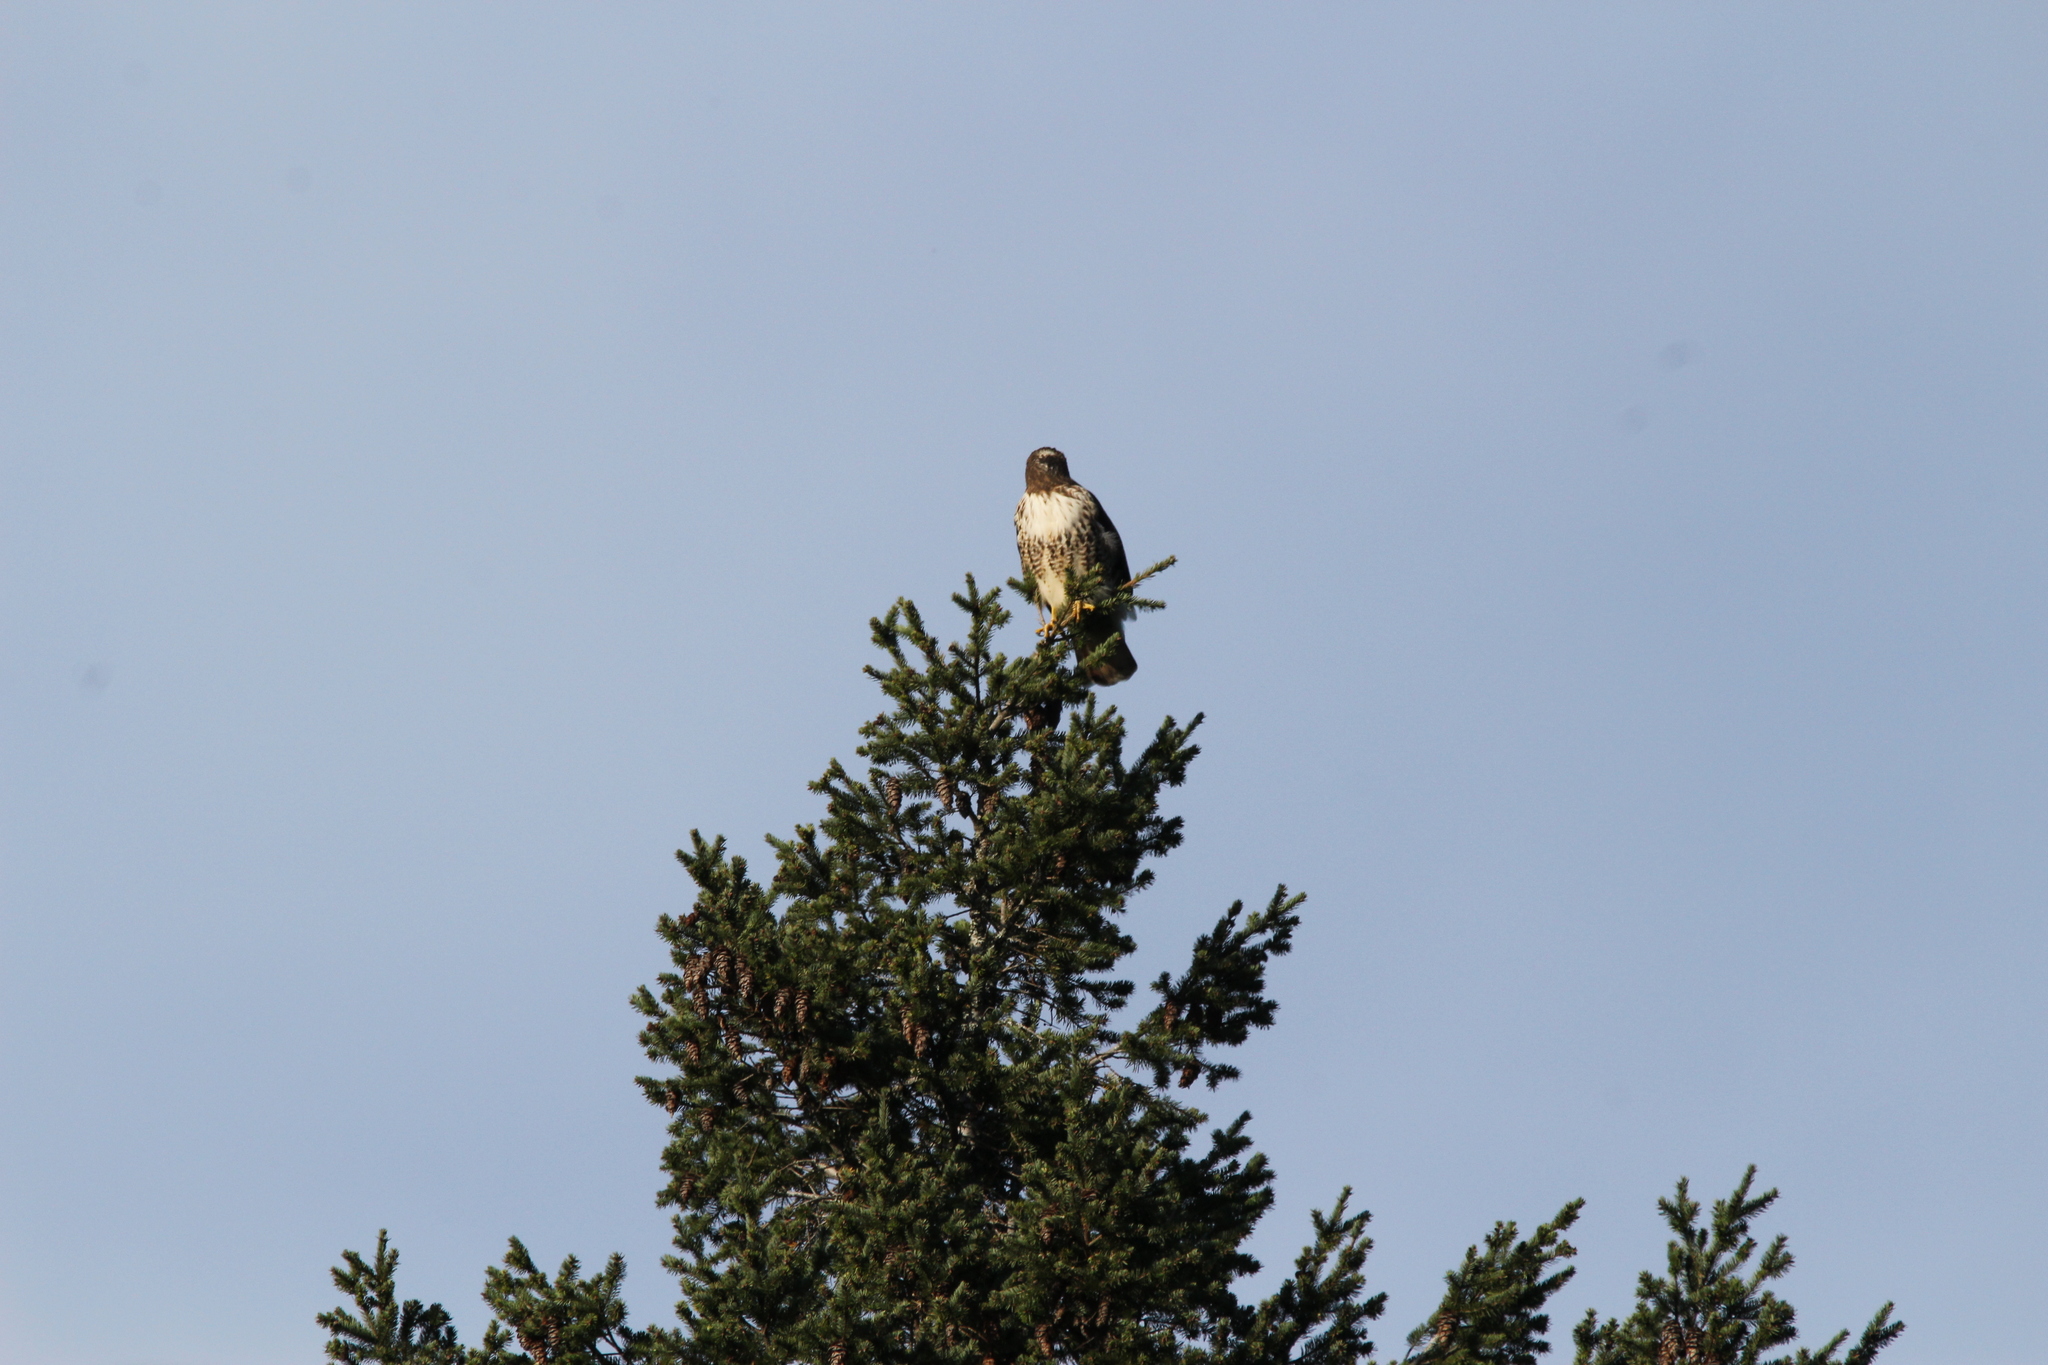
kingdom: Animalia
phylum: Chordata
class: Aves
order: Accipitriformes
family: Accipitridae
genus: Buteo
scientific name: Buteo jamaicensis
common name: Red-tailed hawk
